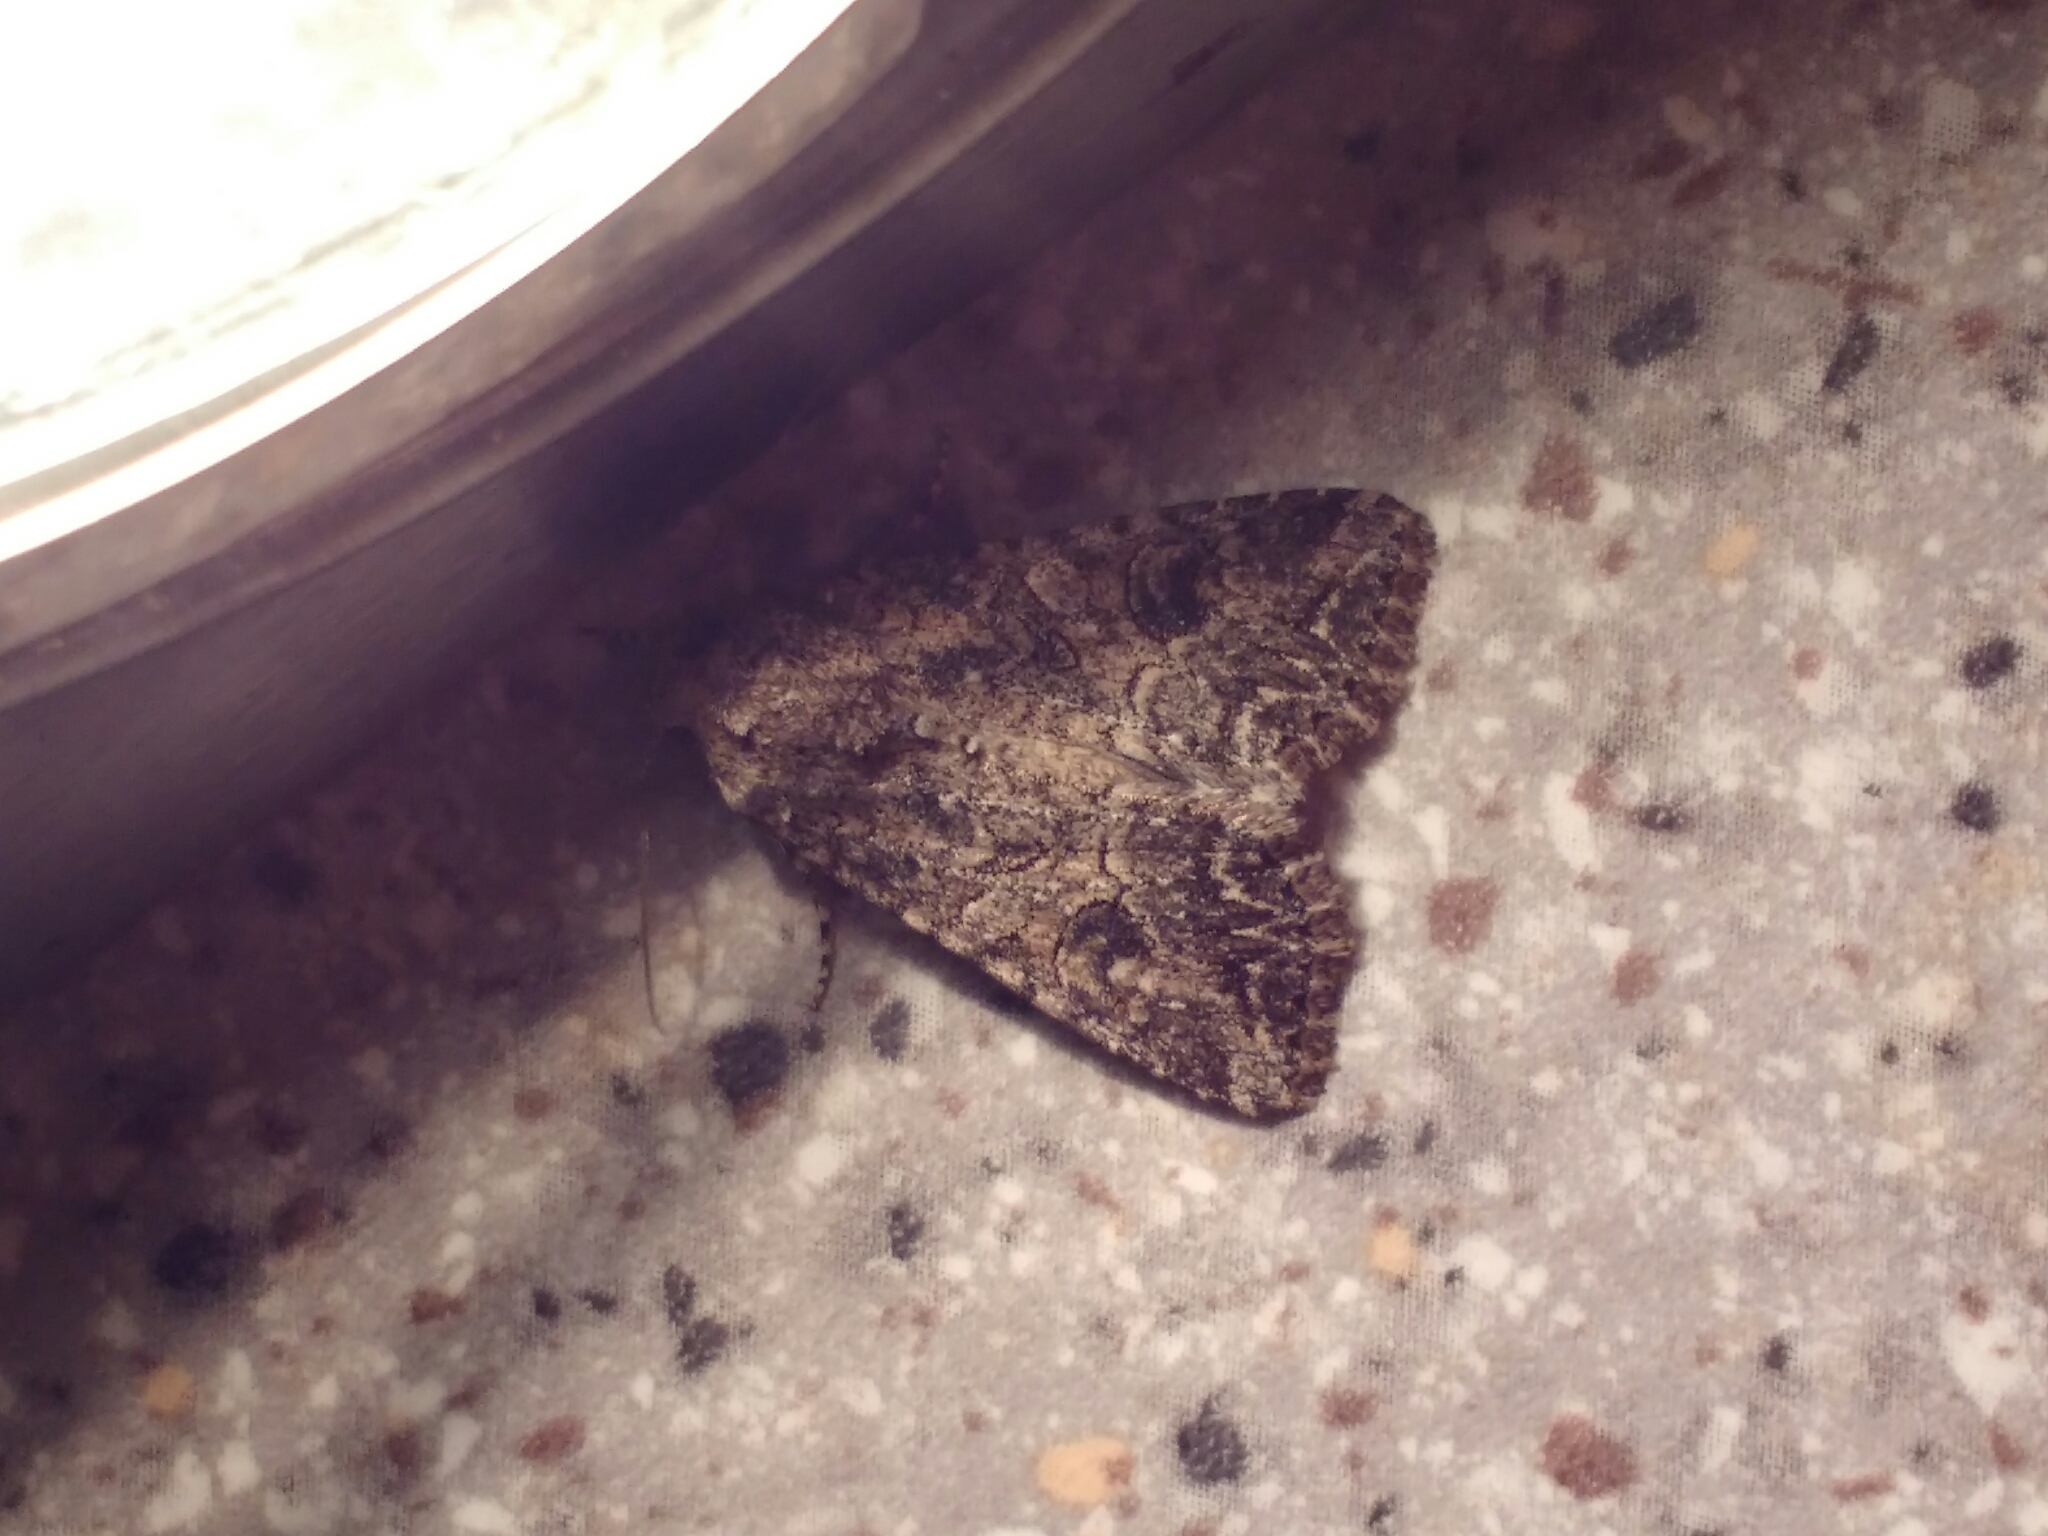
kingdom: Animalia
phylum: Arthropoda
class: Insecta
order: Lepidoptera
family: Noctuidae
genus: Anarta
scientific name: Anarta trifolii
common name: Clover cutworm moth
